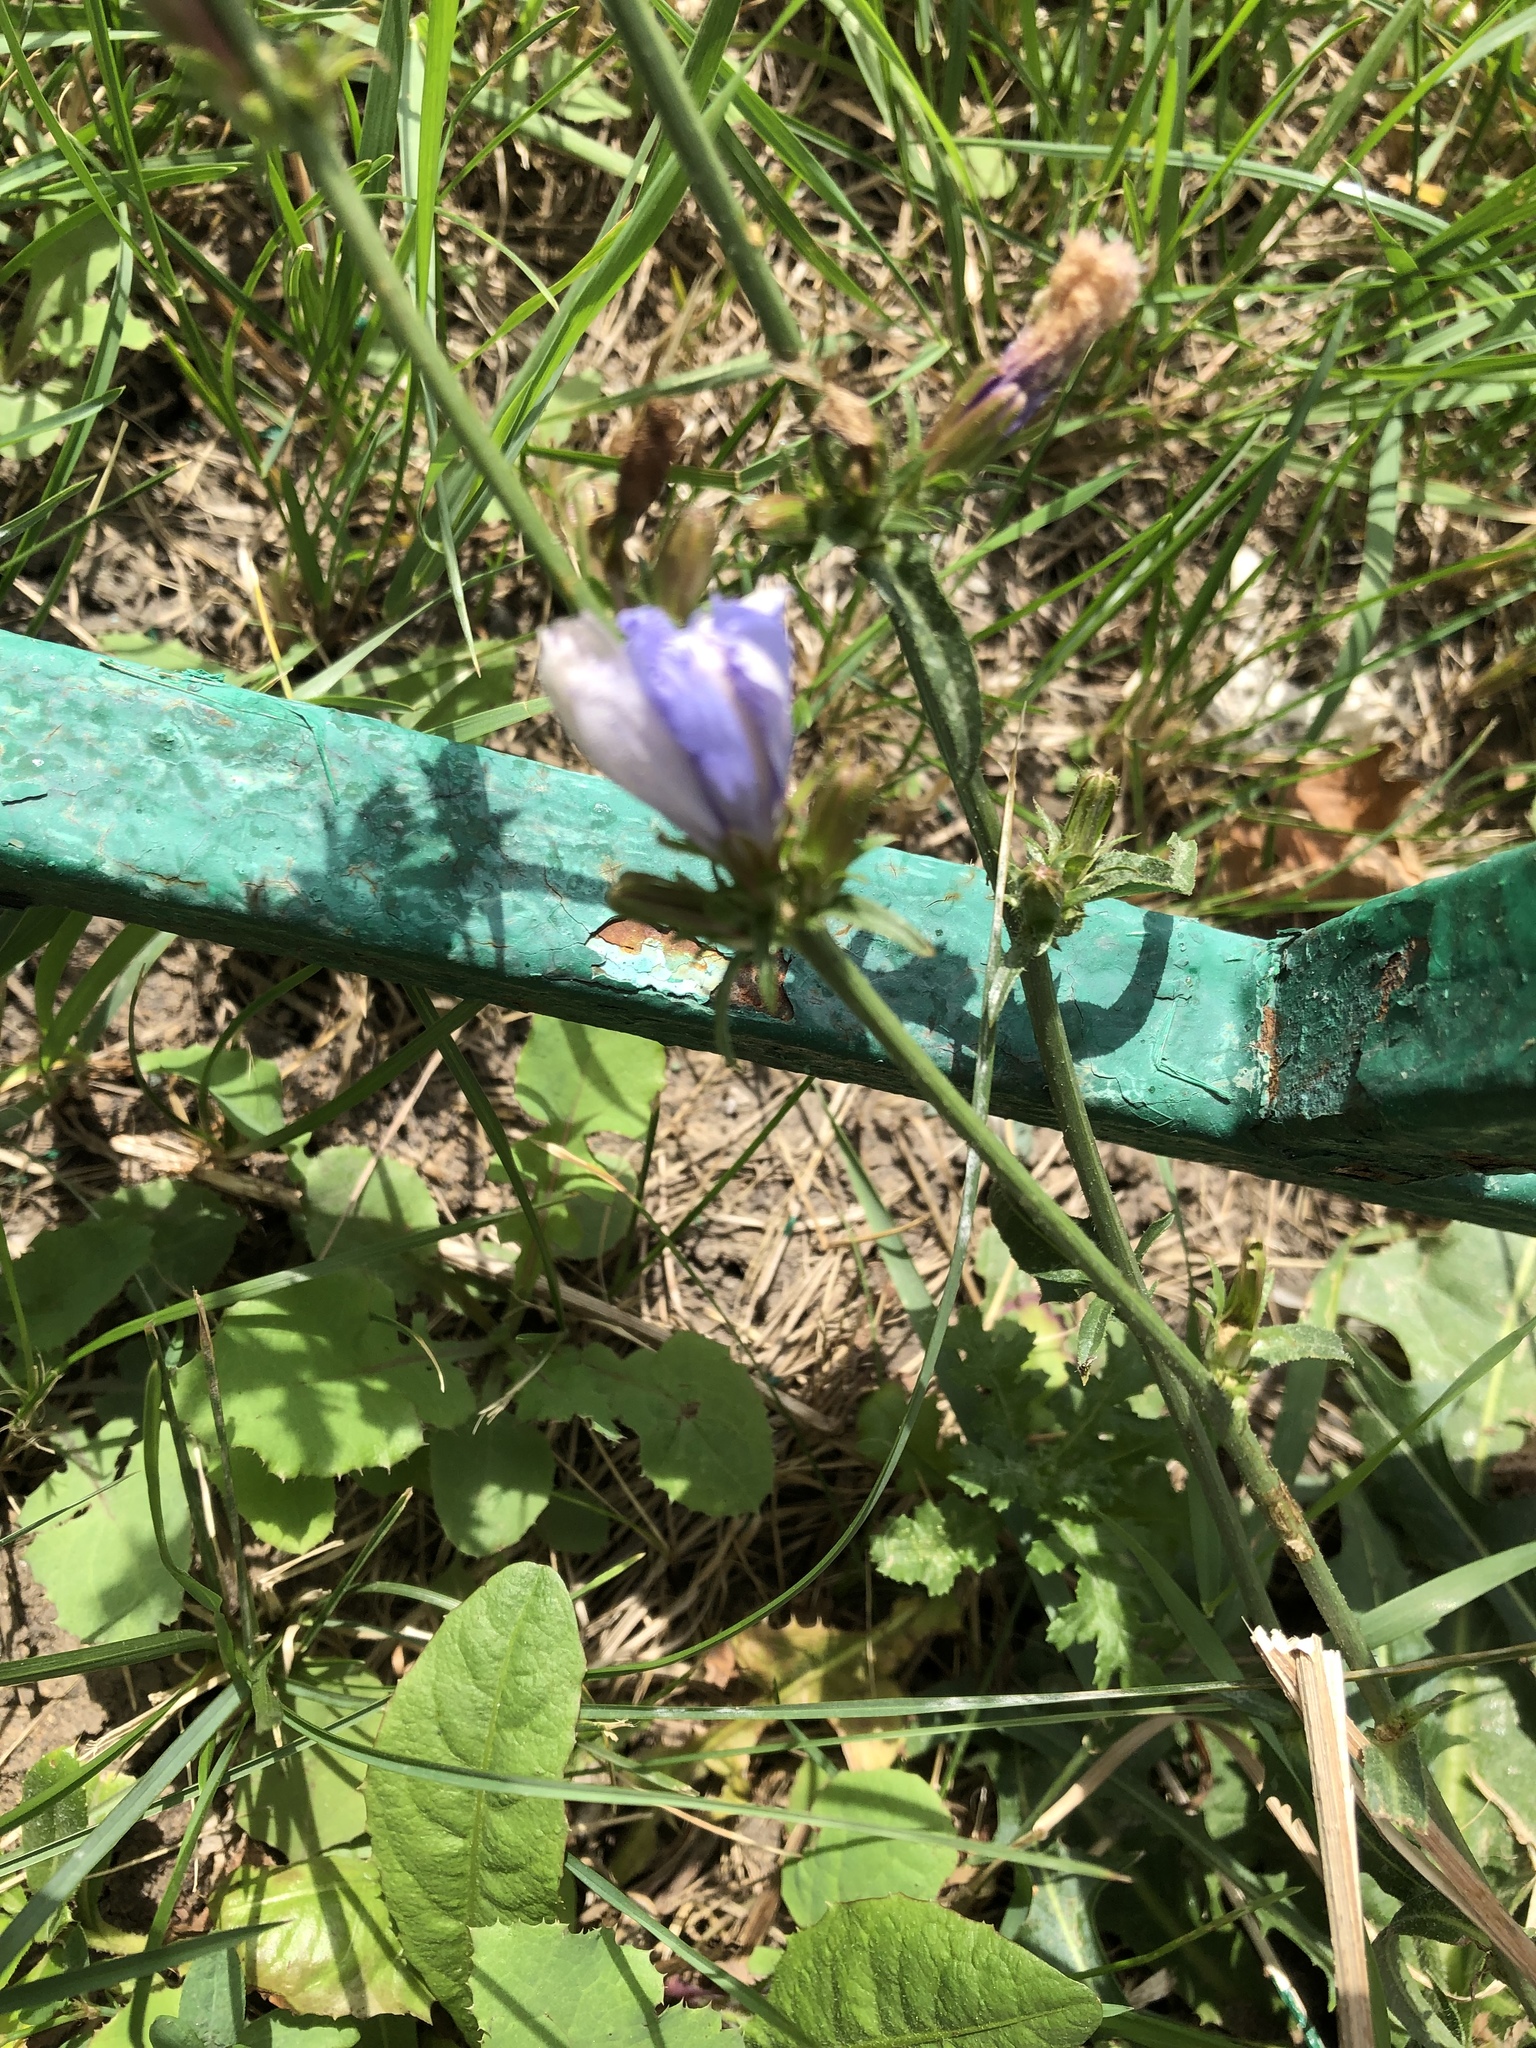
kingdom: Plantae
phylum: Tracheophyta
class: Magnoliopsida
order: Asterales
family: Asteraceae
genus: Cichorium
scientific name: Cichorium intybus
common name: Chicory
